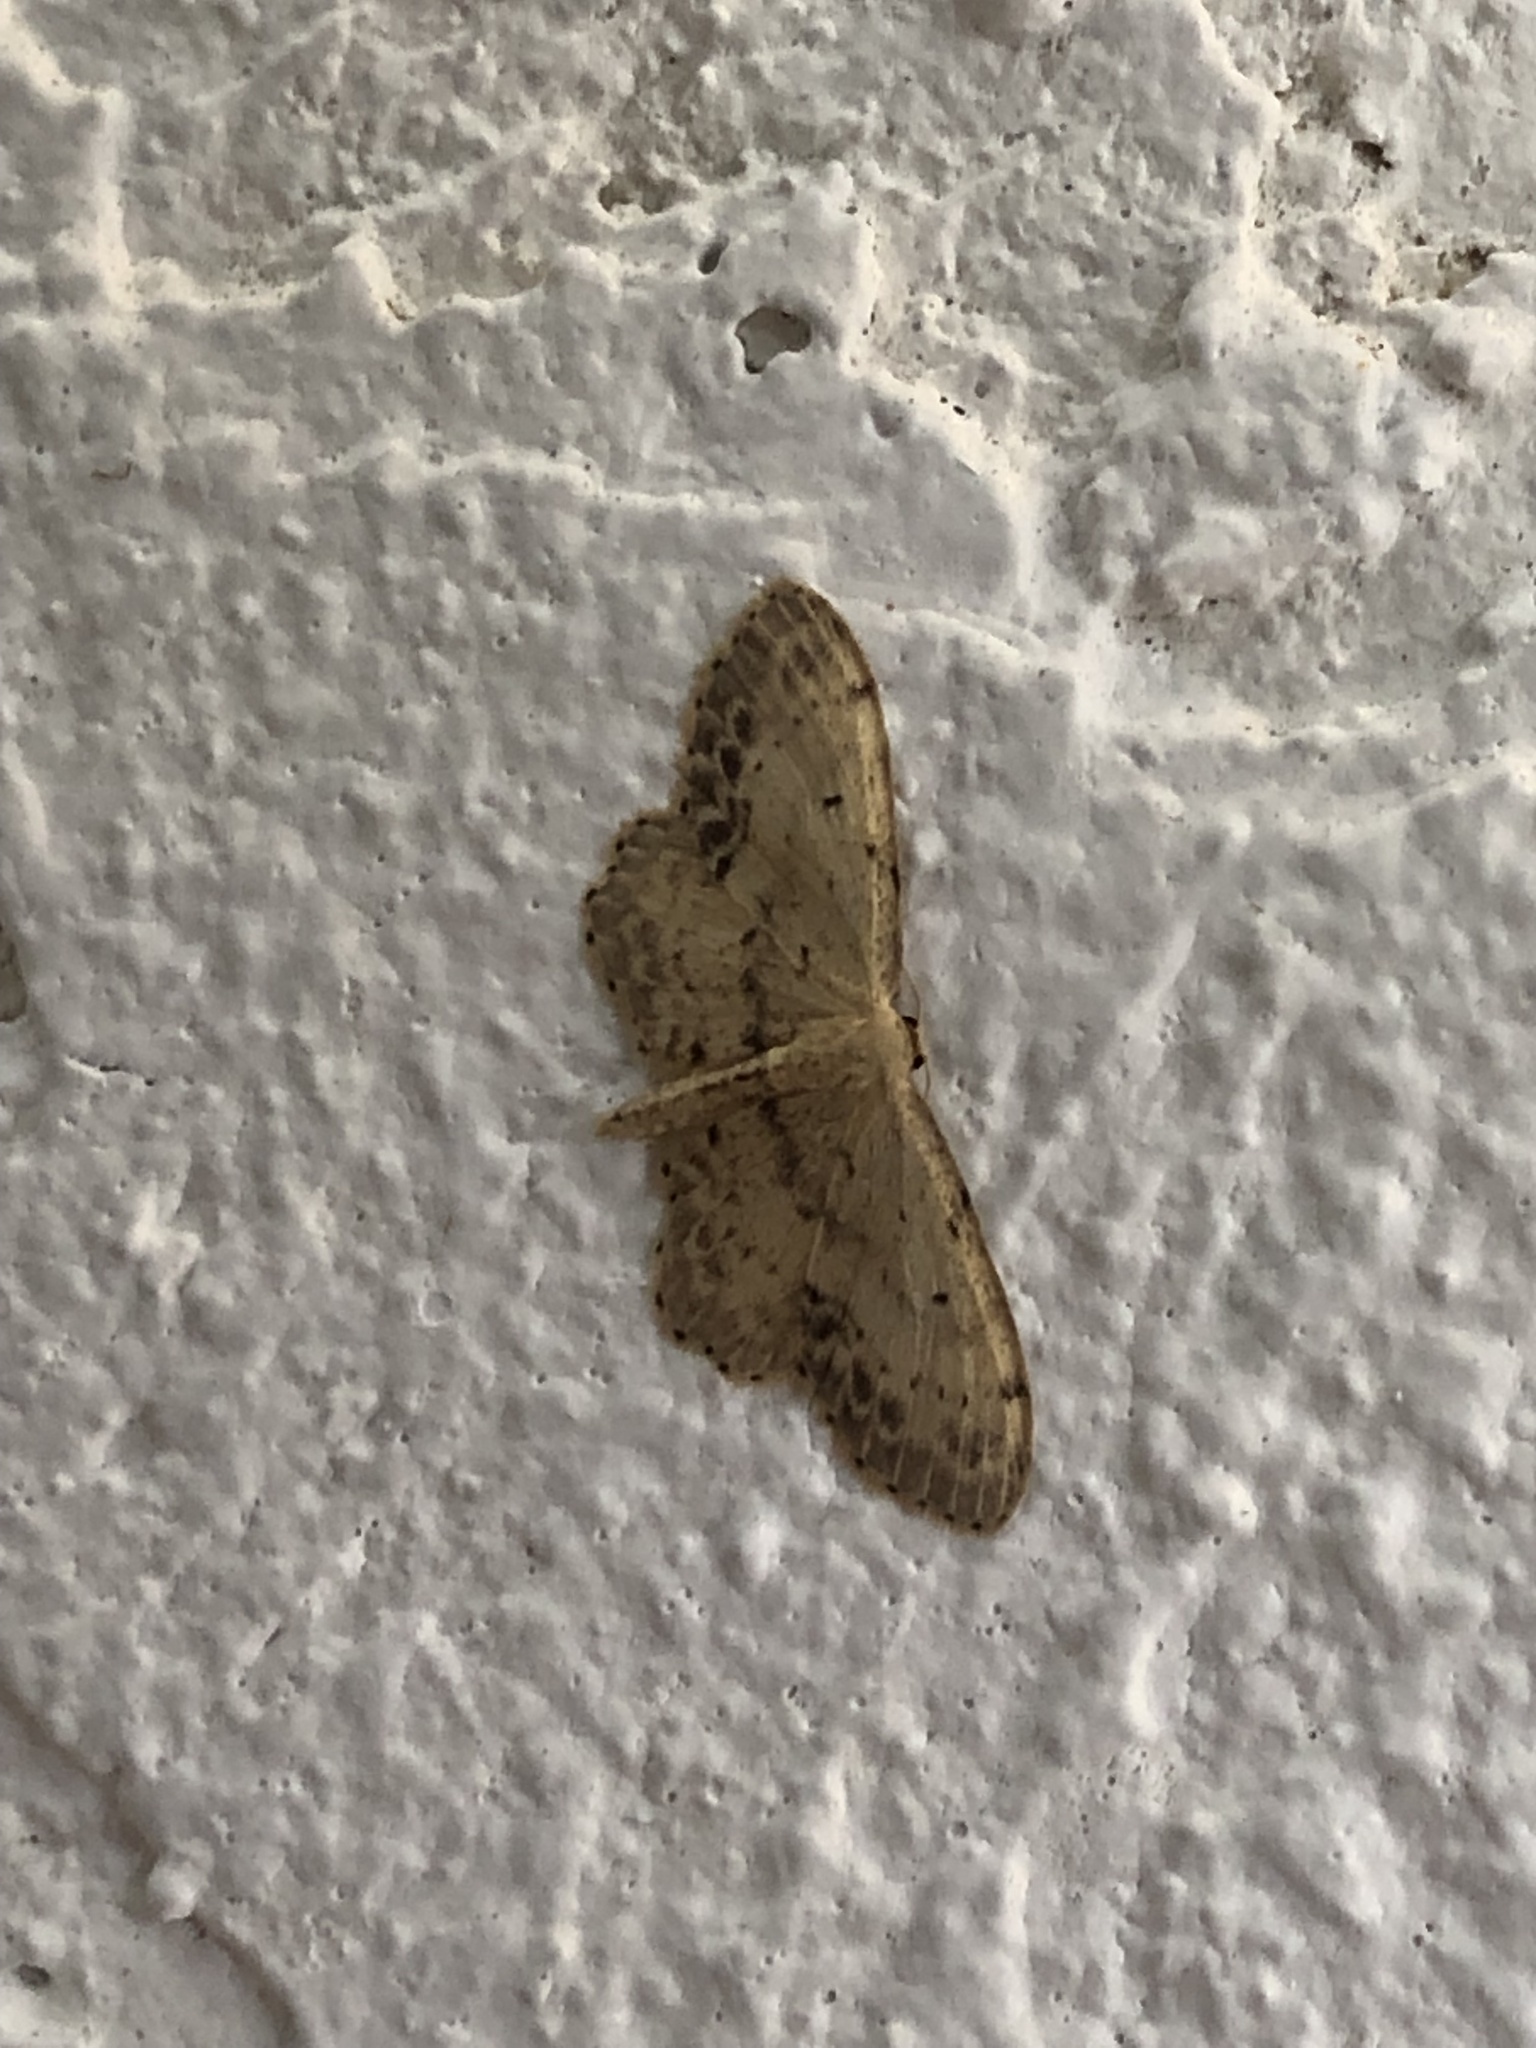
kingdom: Animalia
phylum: Arthropoda
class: Insecta
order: Lepidoptera
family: Geometridae
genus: Idaea
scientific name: Idaea dimidiata
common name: Single-dotted wave
